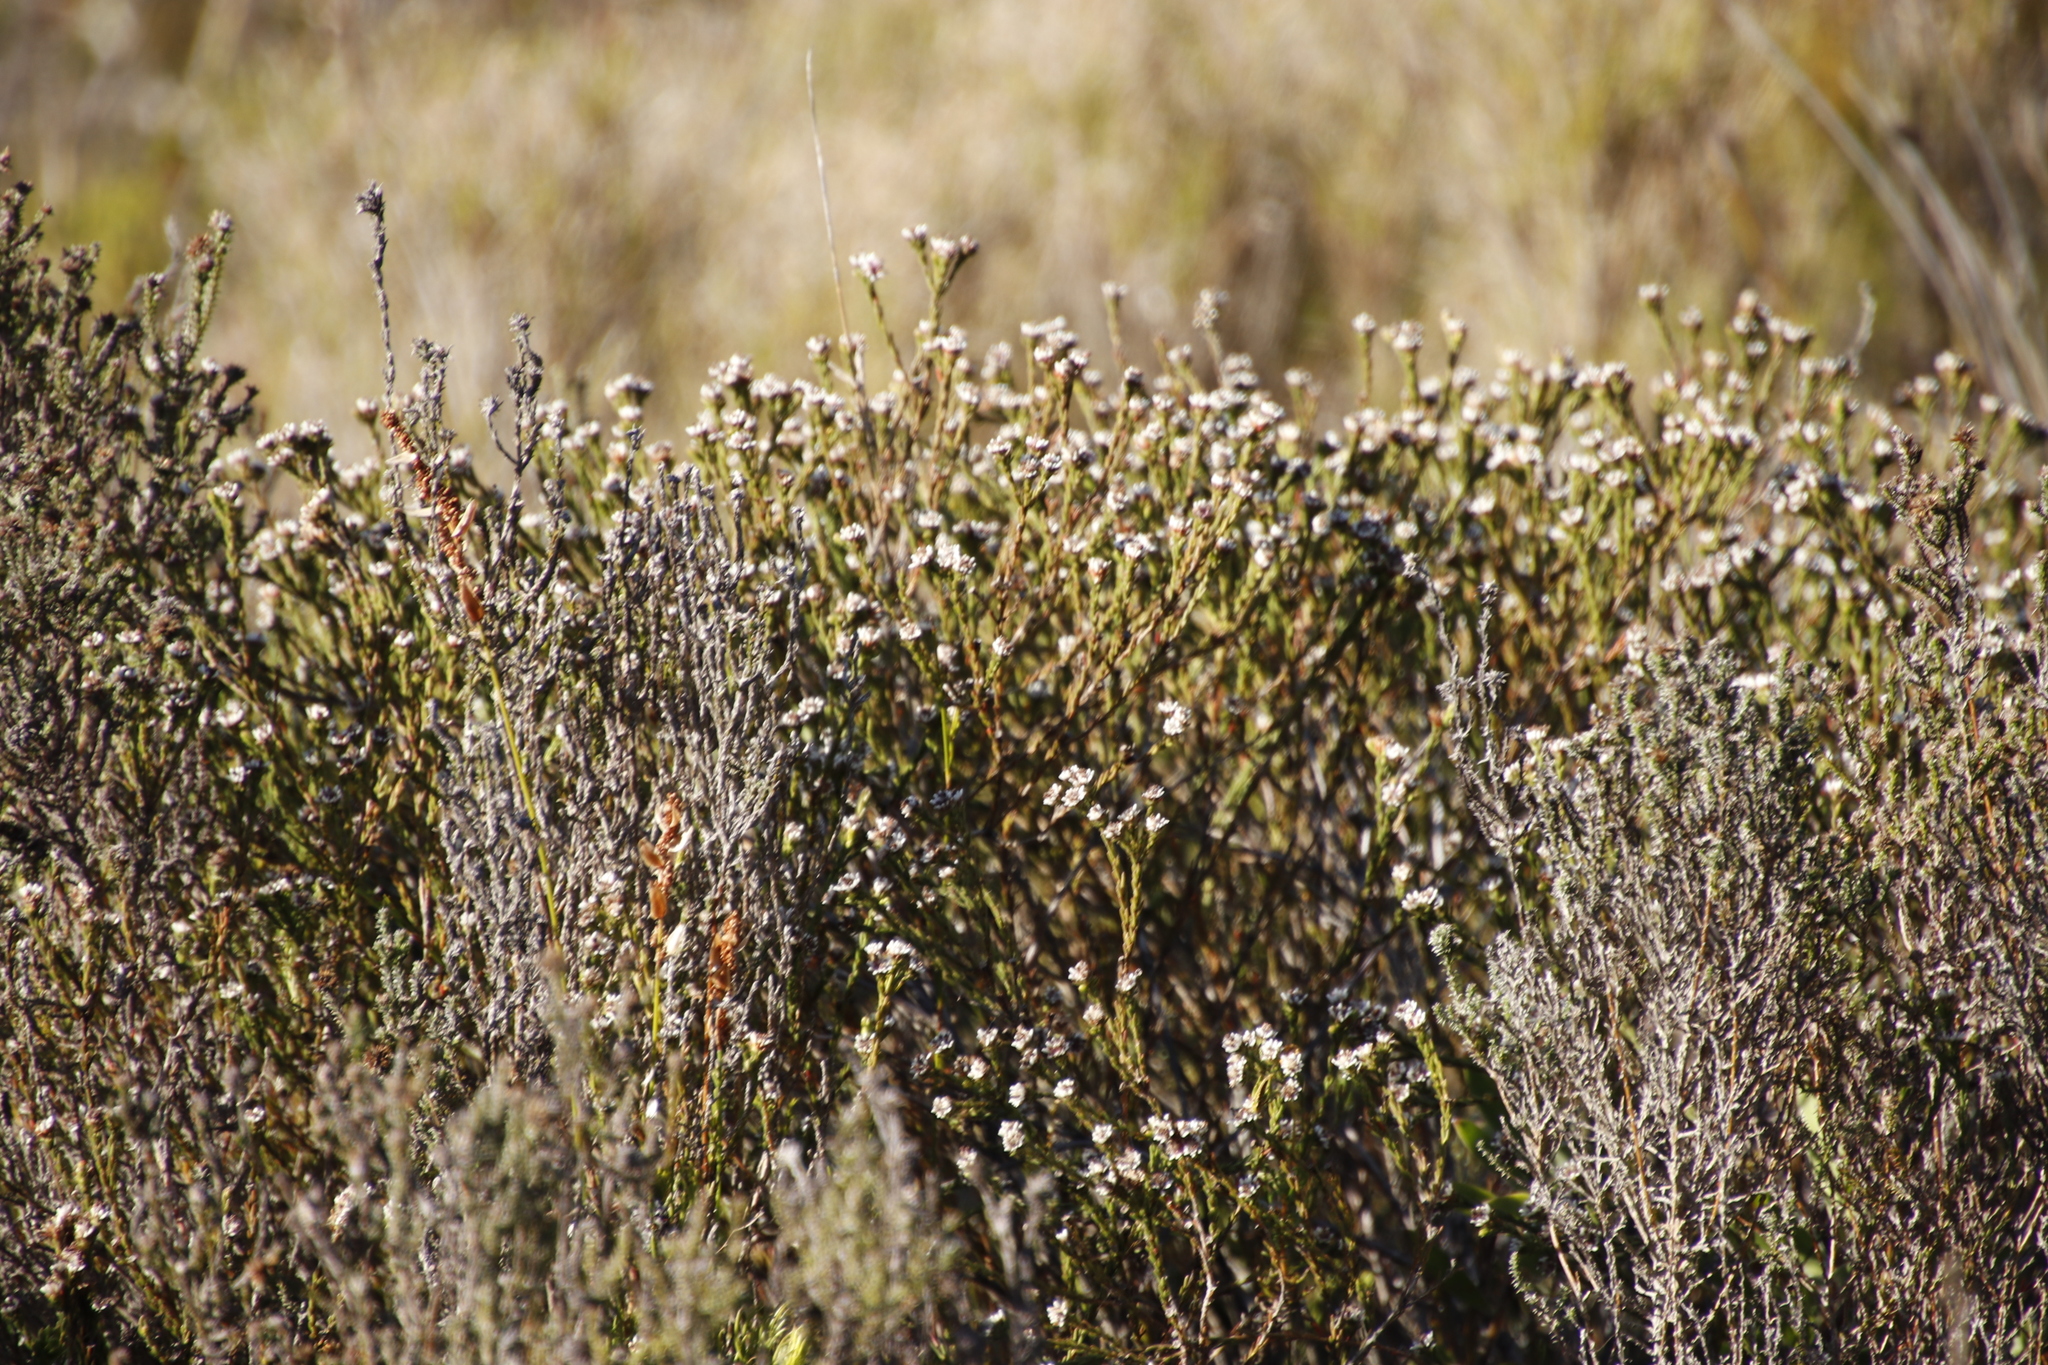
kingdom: Plantae
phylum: Tracheophyta
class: Magnoliopsida
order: Bruniales
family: Bruniaceae
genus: Staavia
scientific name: Staavia radiata
